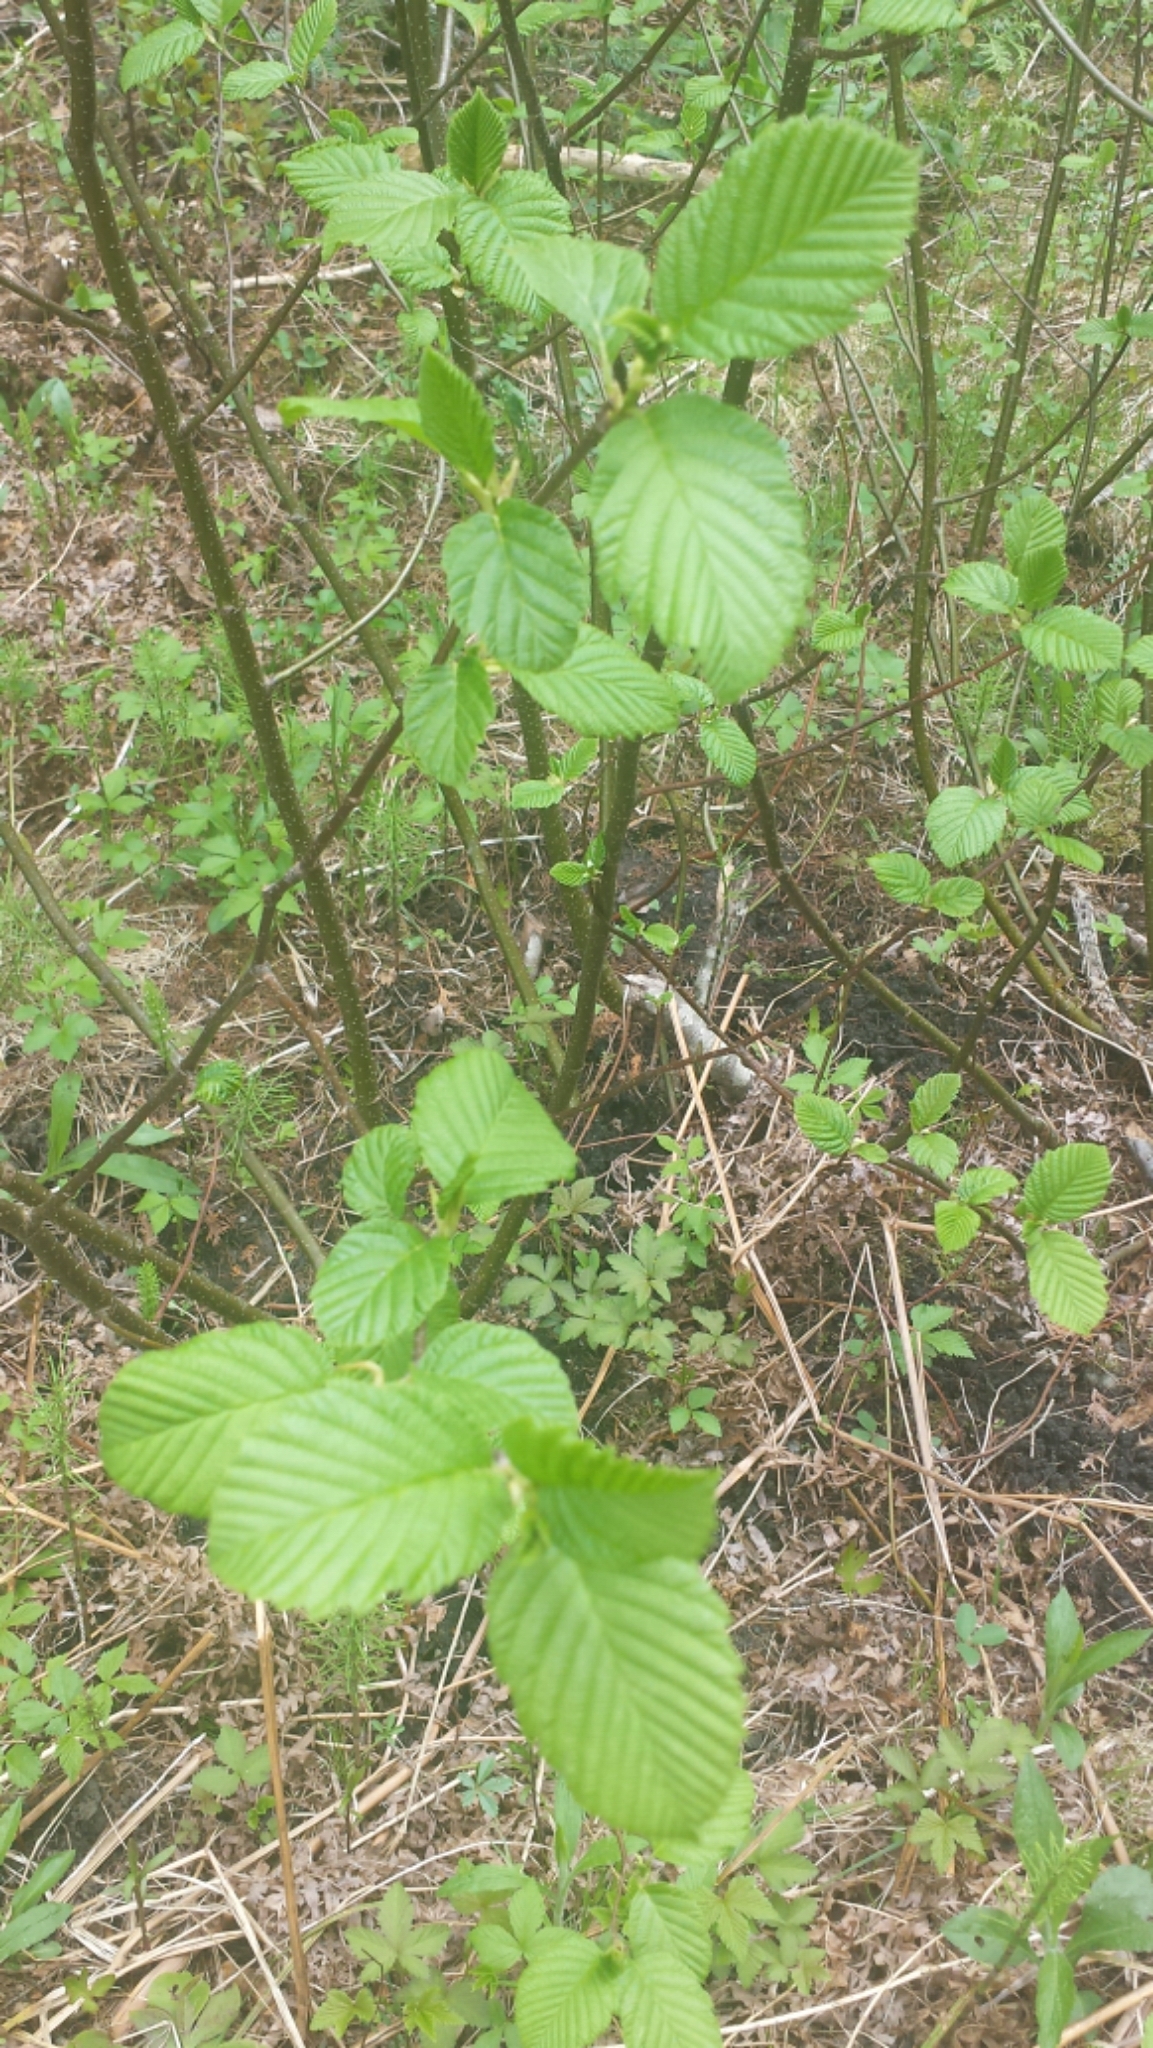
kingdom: Plantae
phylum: Tracheophyta
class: Magnoliopsida
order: Fagales
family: Betulaceae
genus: Alnus
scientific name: Alnus incana
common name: Grey alder
